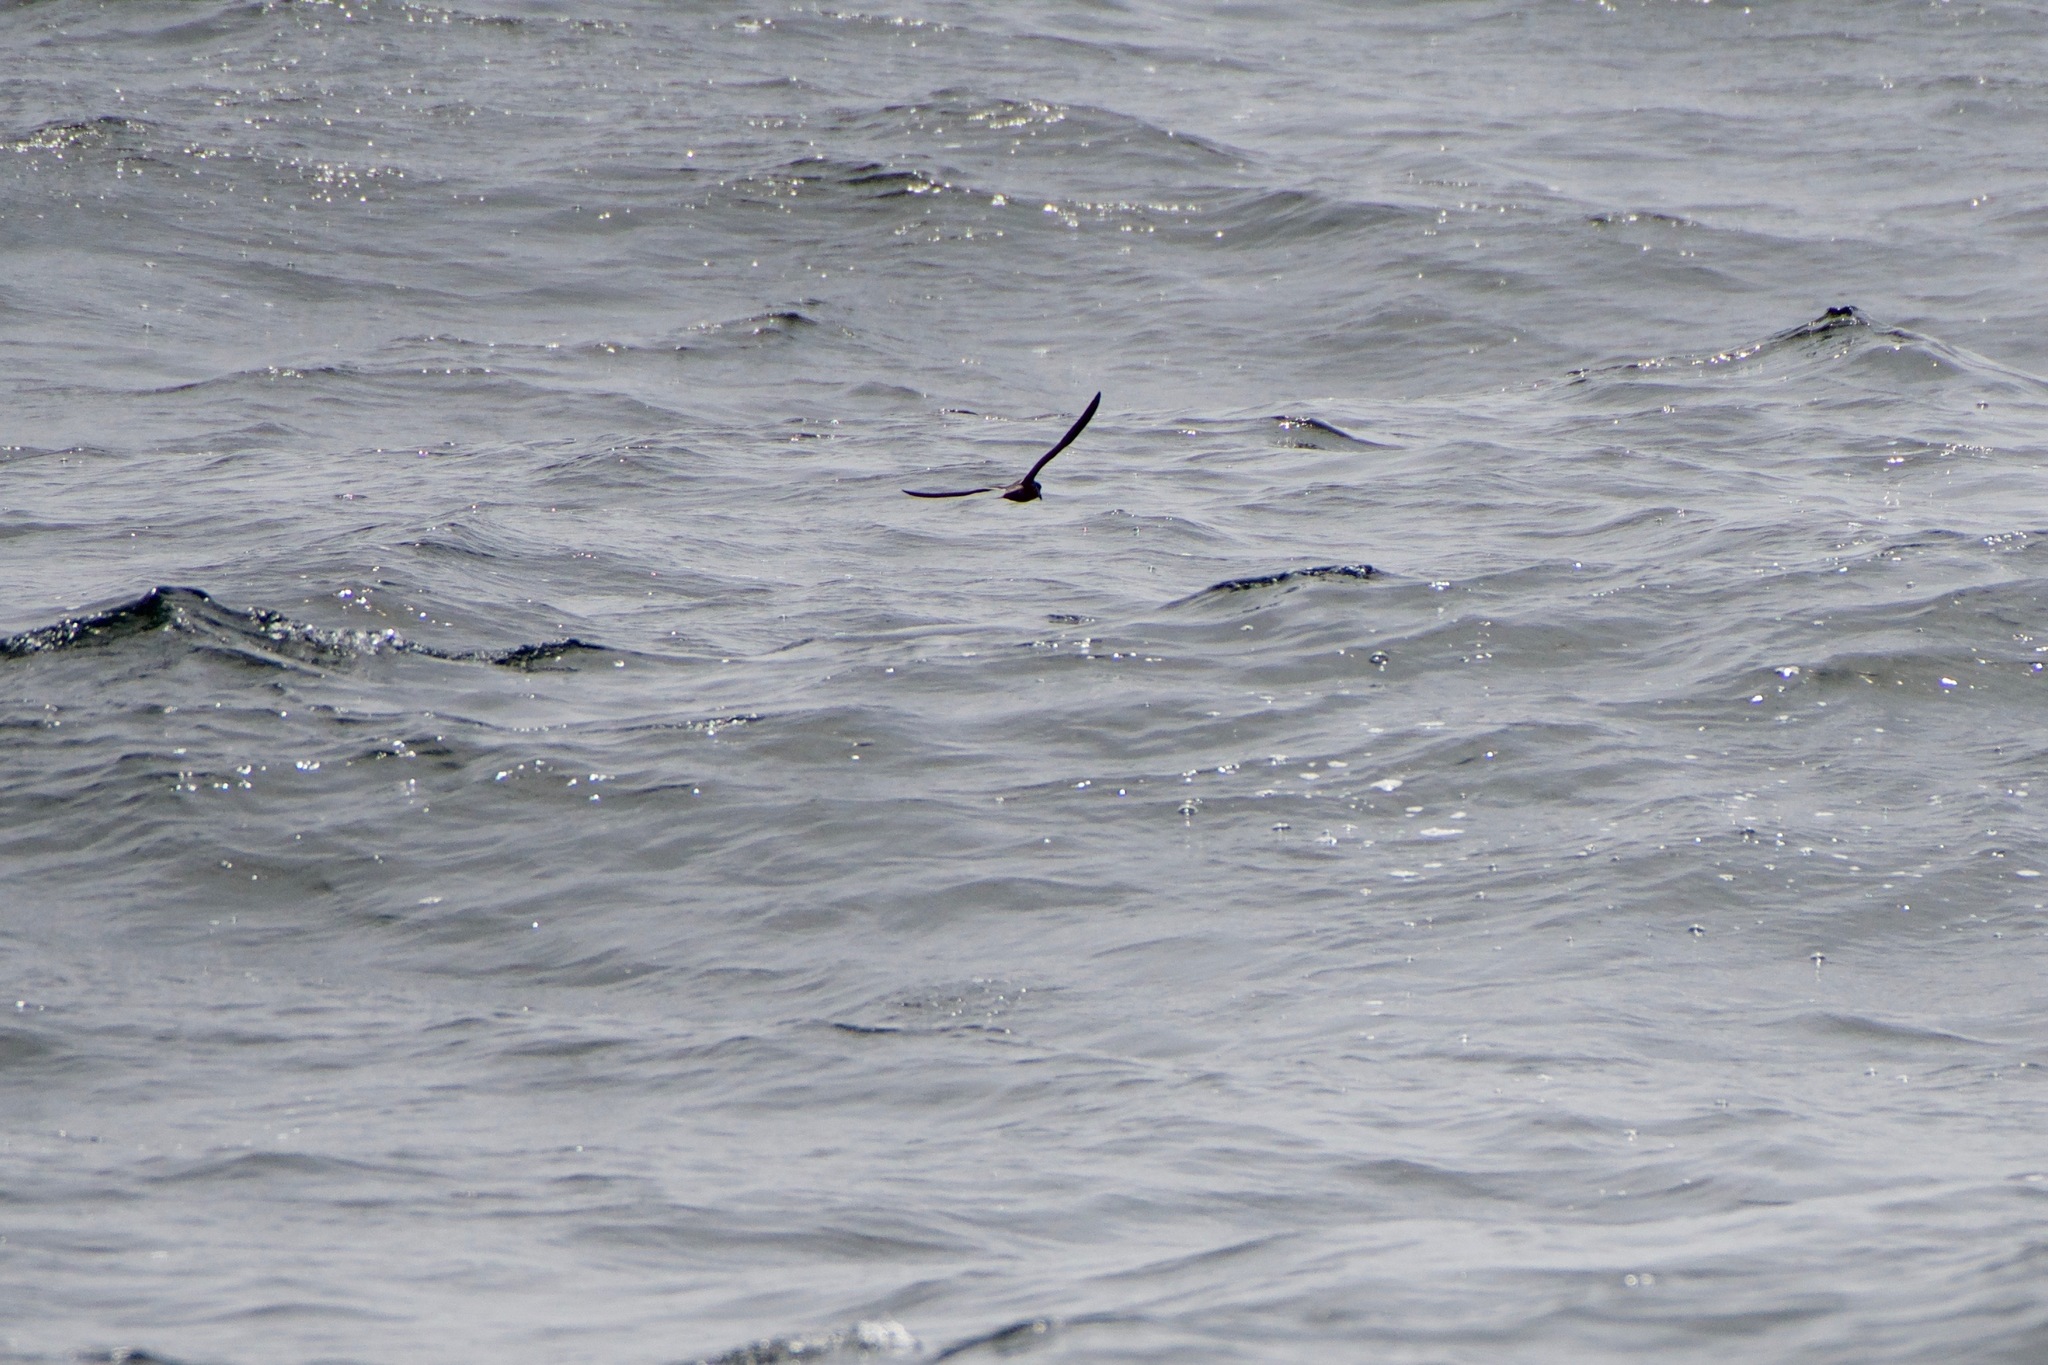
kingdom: Animalia
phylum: Chordata
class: Aves
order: Procellariiformes
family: Hydrobatidae
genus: Hydrobates
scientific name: Hydrobates homochroa
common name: Ashy storm petrel
